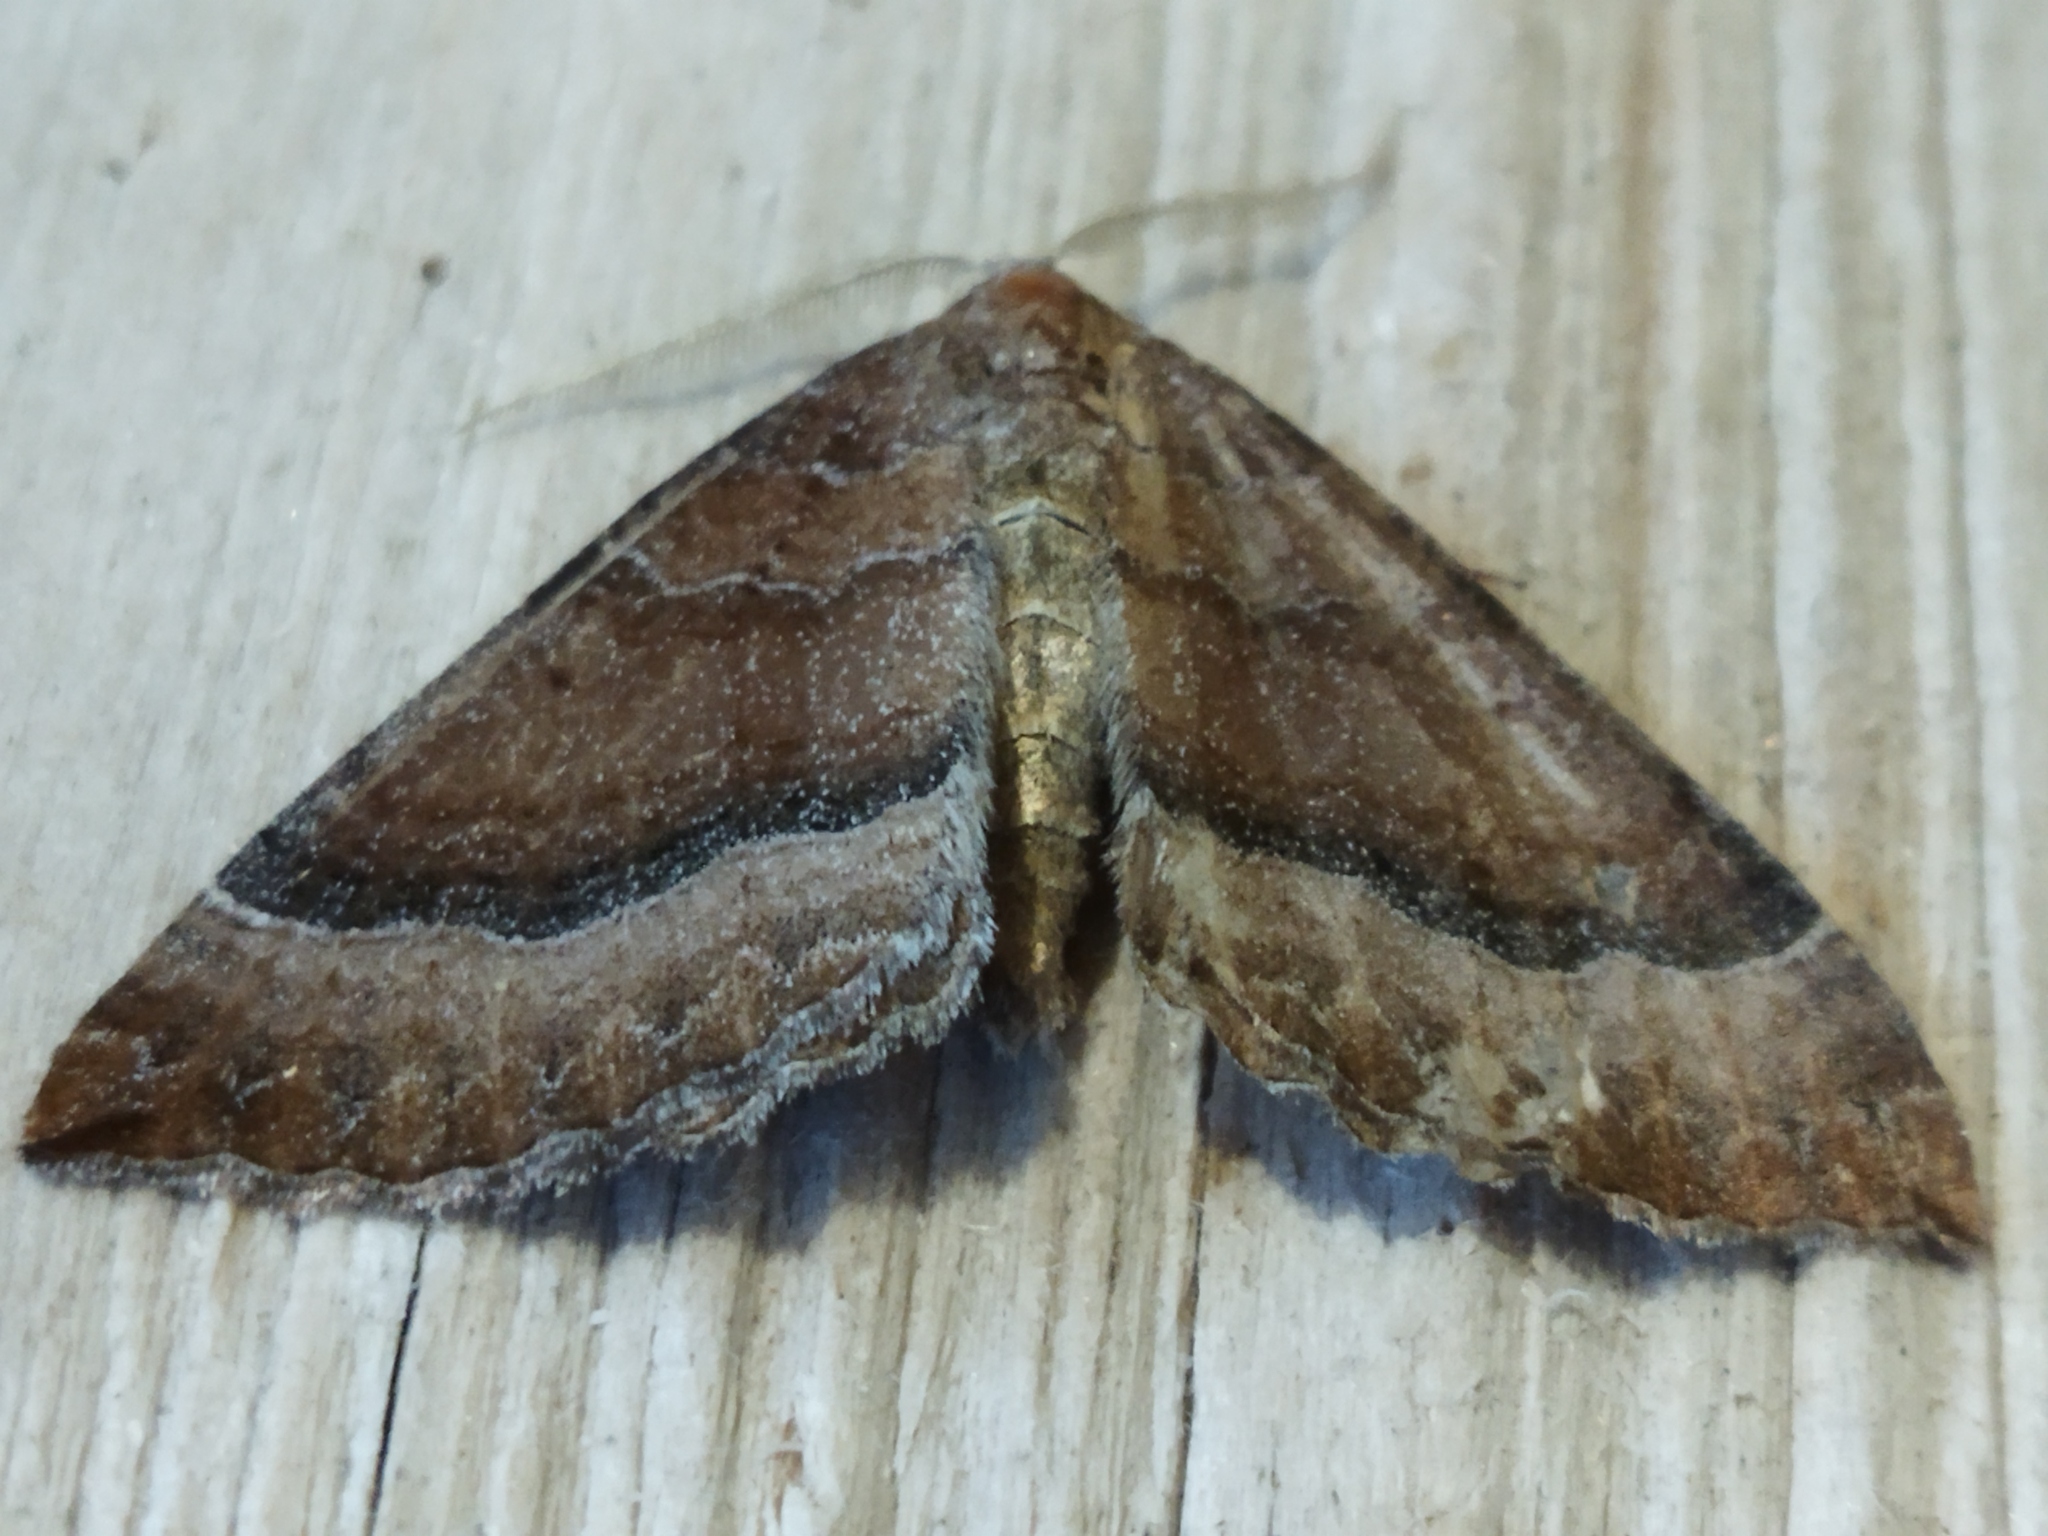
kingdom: Animalia
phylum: Arthropoda
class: Insecta
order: Lepidoptera
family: Geometridae
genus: Larentia
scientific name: Larentia clavaria
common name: Mallow
